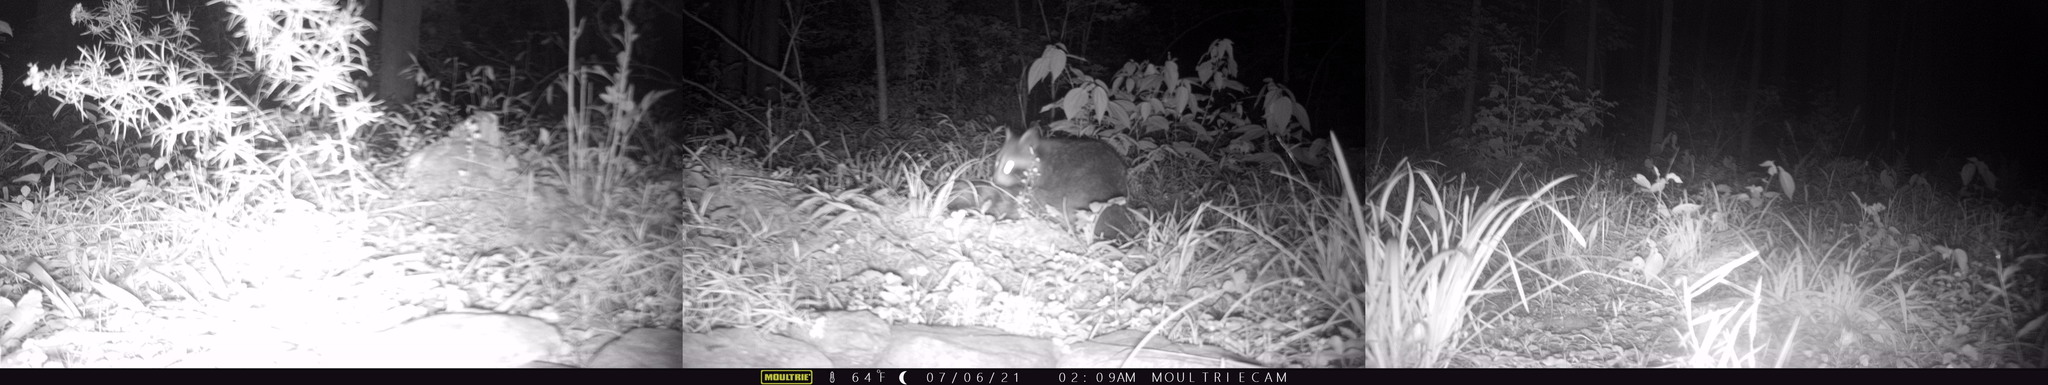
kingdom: Animalia
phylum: Chordata
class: Mammalia
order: Carnivora
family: Procyonidae
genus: Procyon
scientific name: Procyon lotor
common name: Raccoon
